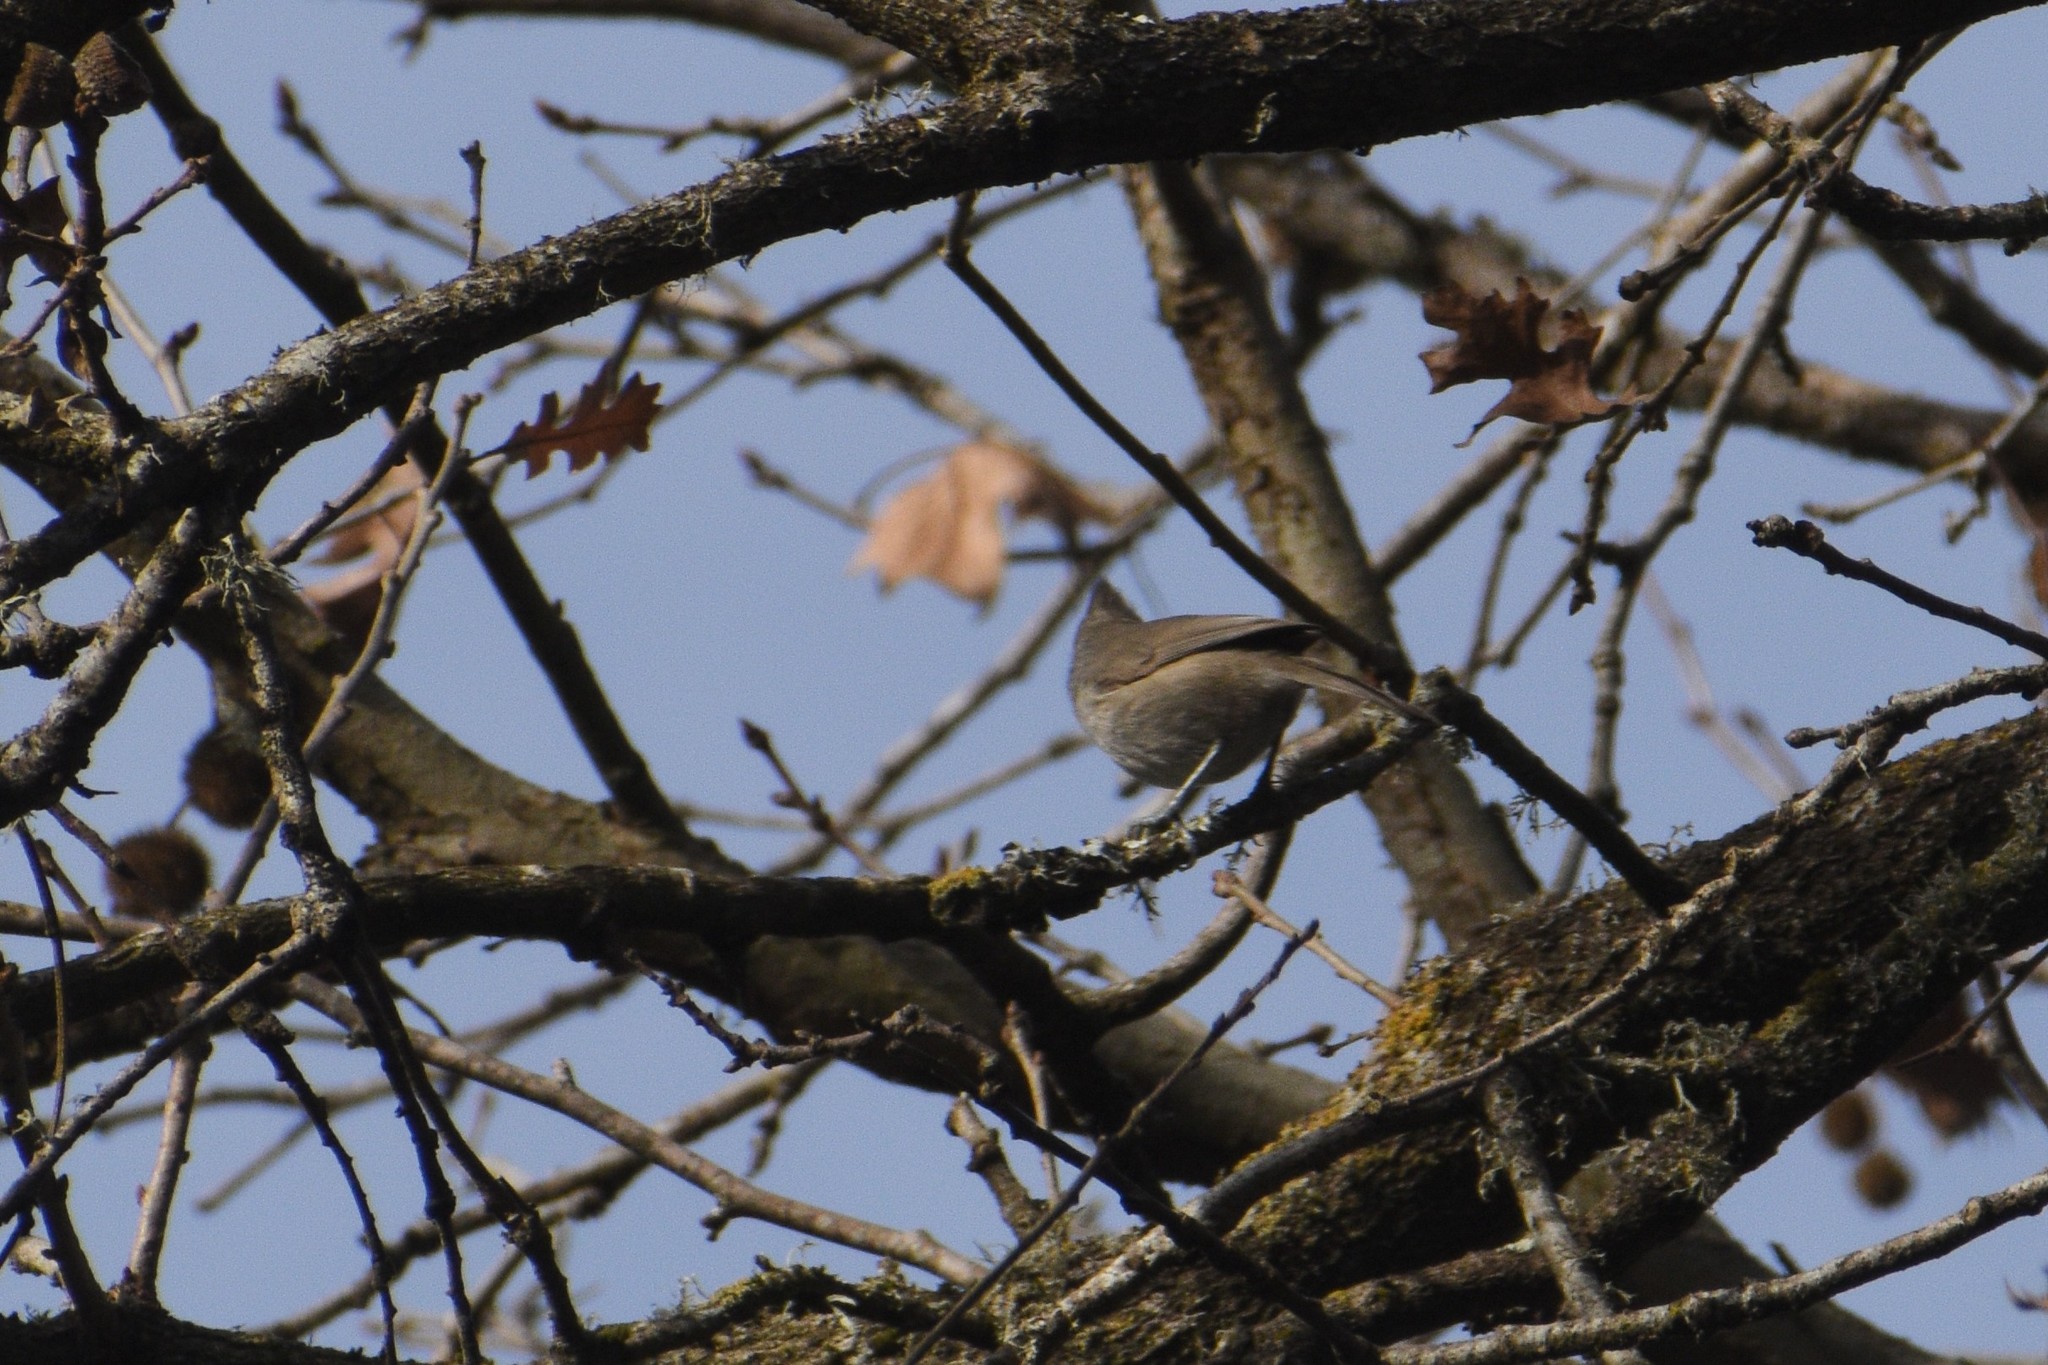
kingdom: Animalia
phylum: Chordata
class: Aves
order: Passeriformes
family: Paridae
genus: Baeolophus
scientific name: Baeolophus inornatus
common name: Oak titmouse
